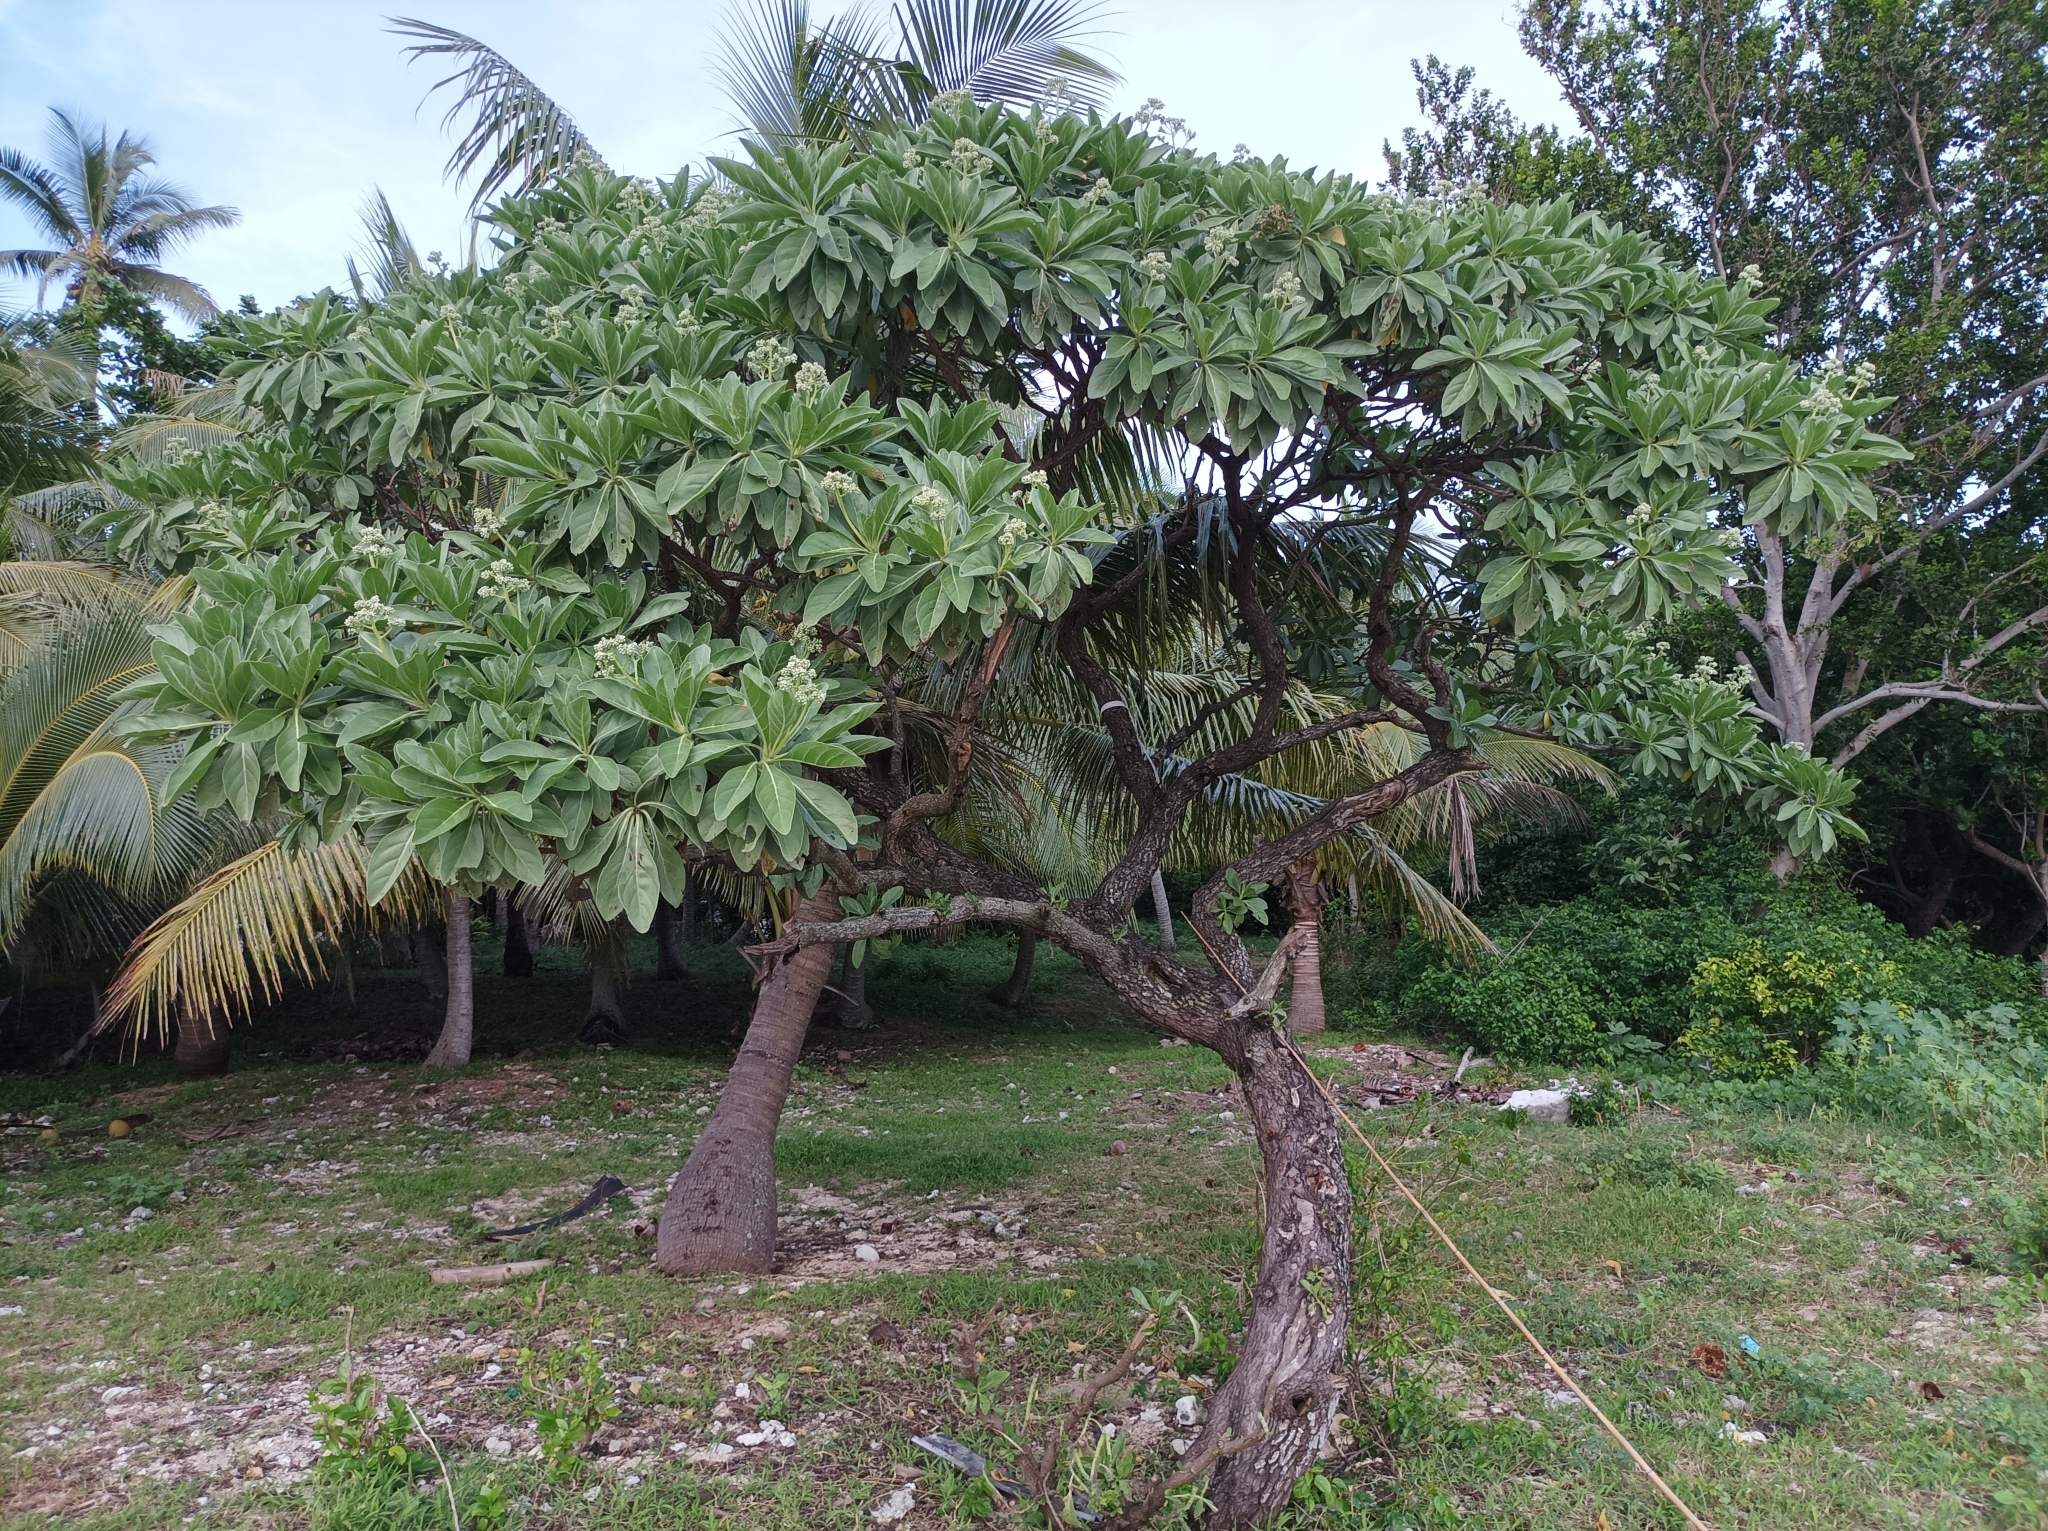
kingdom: Plantae
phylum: Tracheophyta
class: Magnoliopsida
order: Boraginales
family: Heliotropiaceae
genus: Heliotropium
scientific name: Heliotropium velutinum
